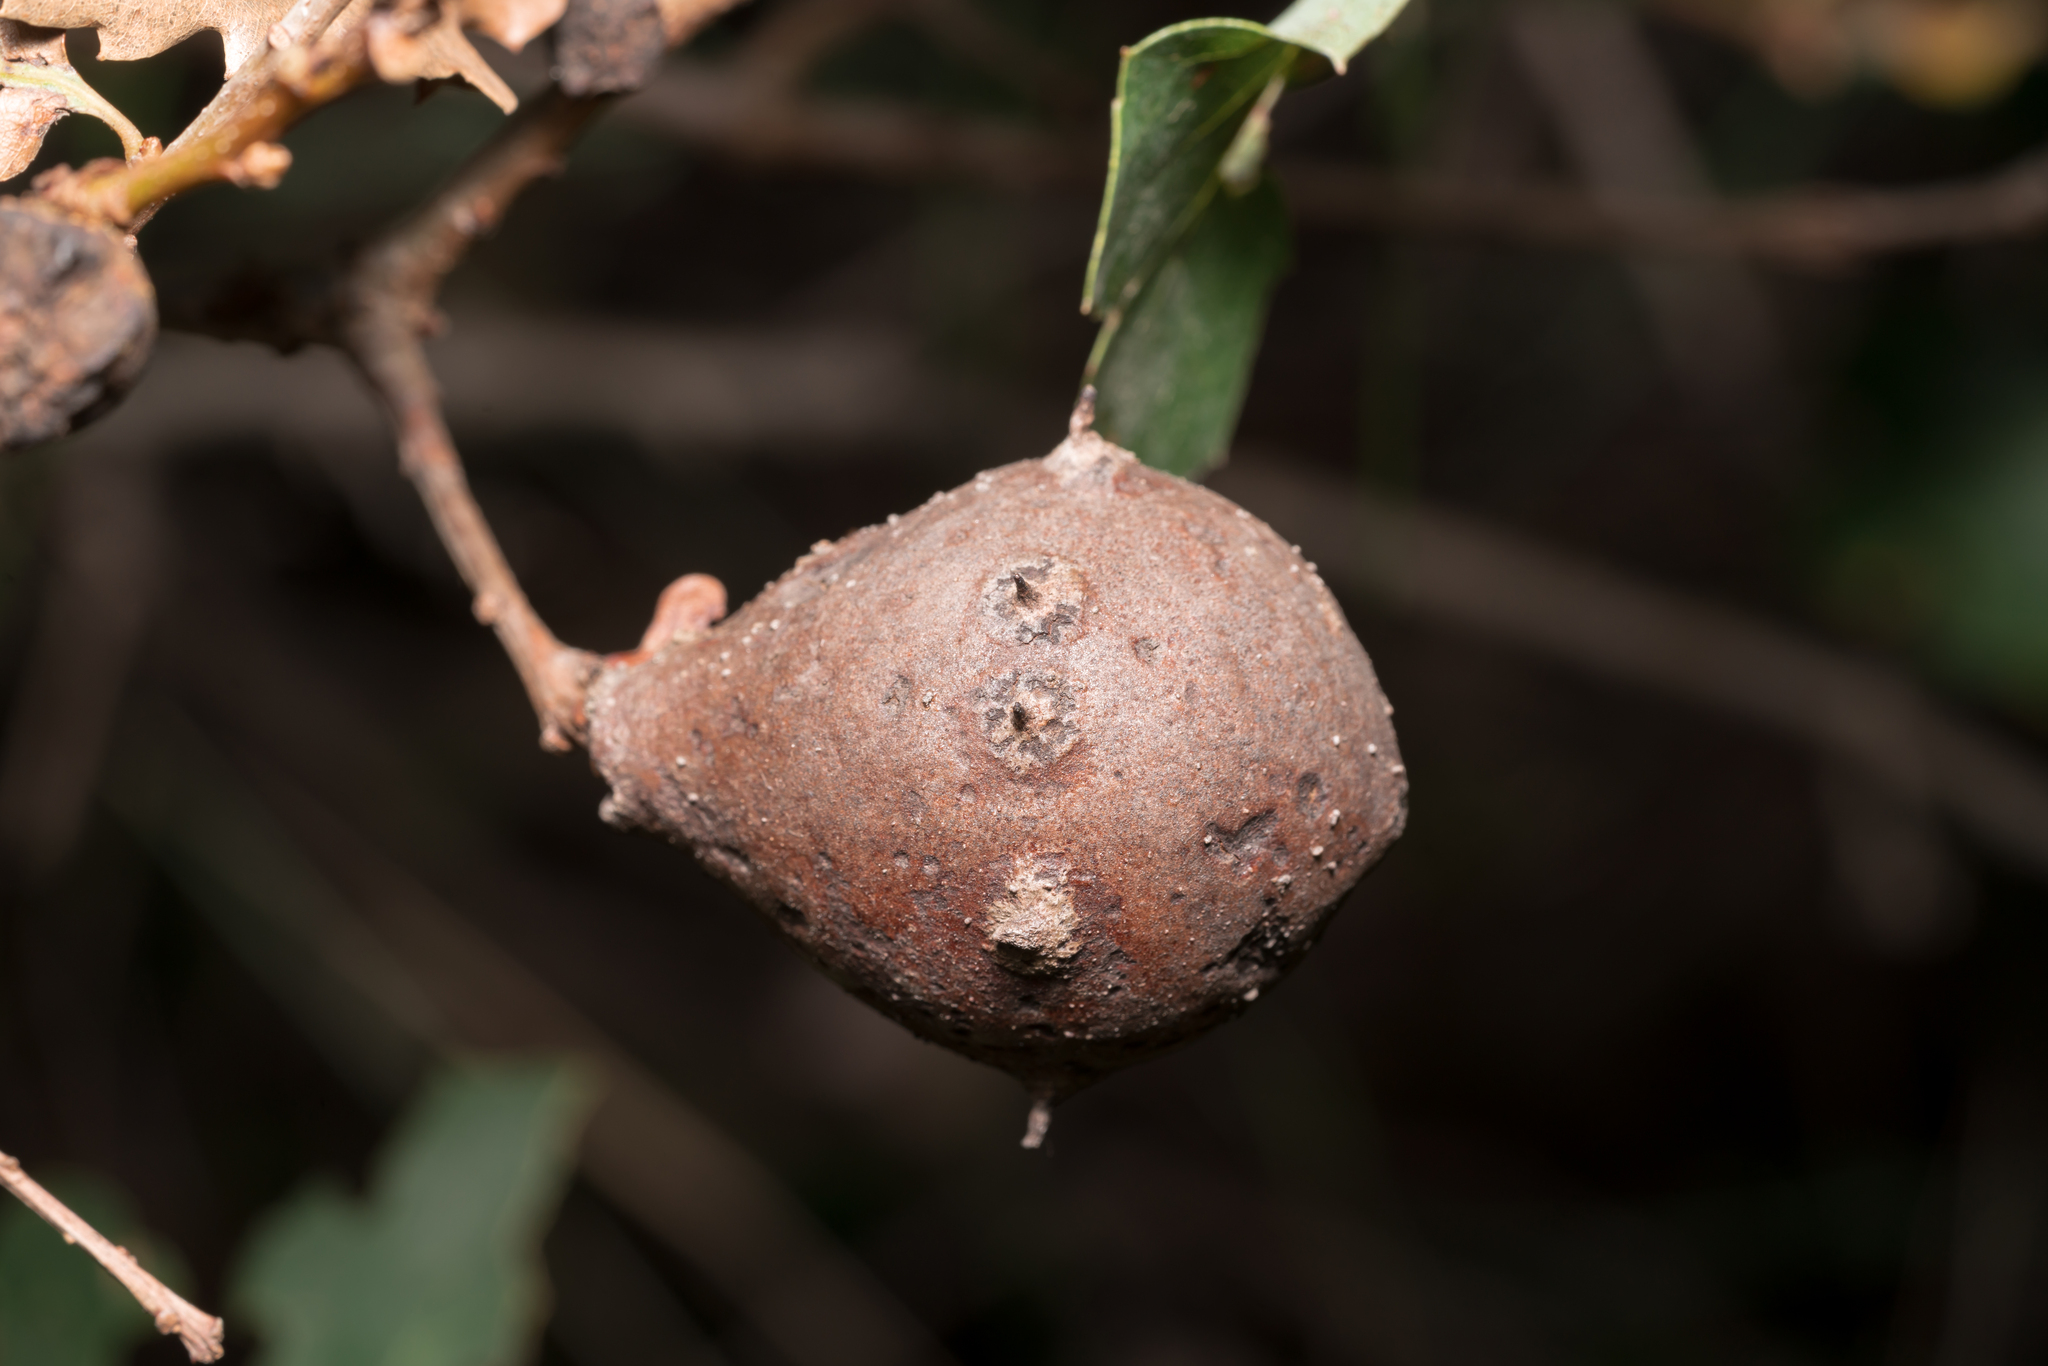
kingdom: Animalia
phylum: Arthropoda
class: Insecta
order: Hymenoptera
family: Cynipidae
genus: Andricus
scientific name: Andricus insanus
